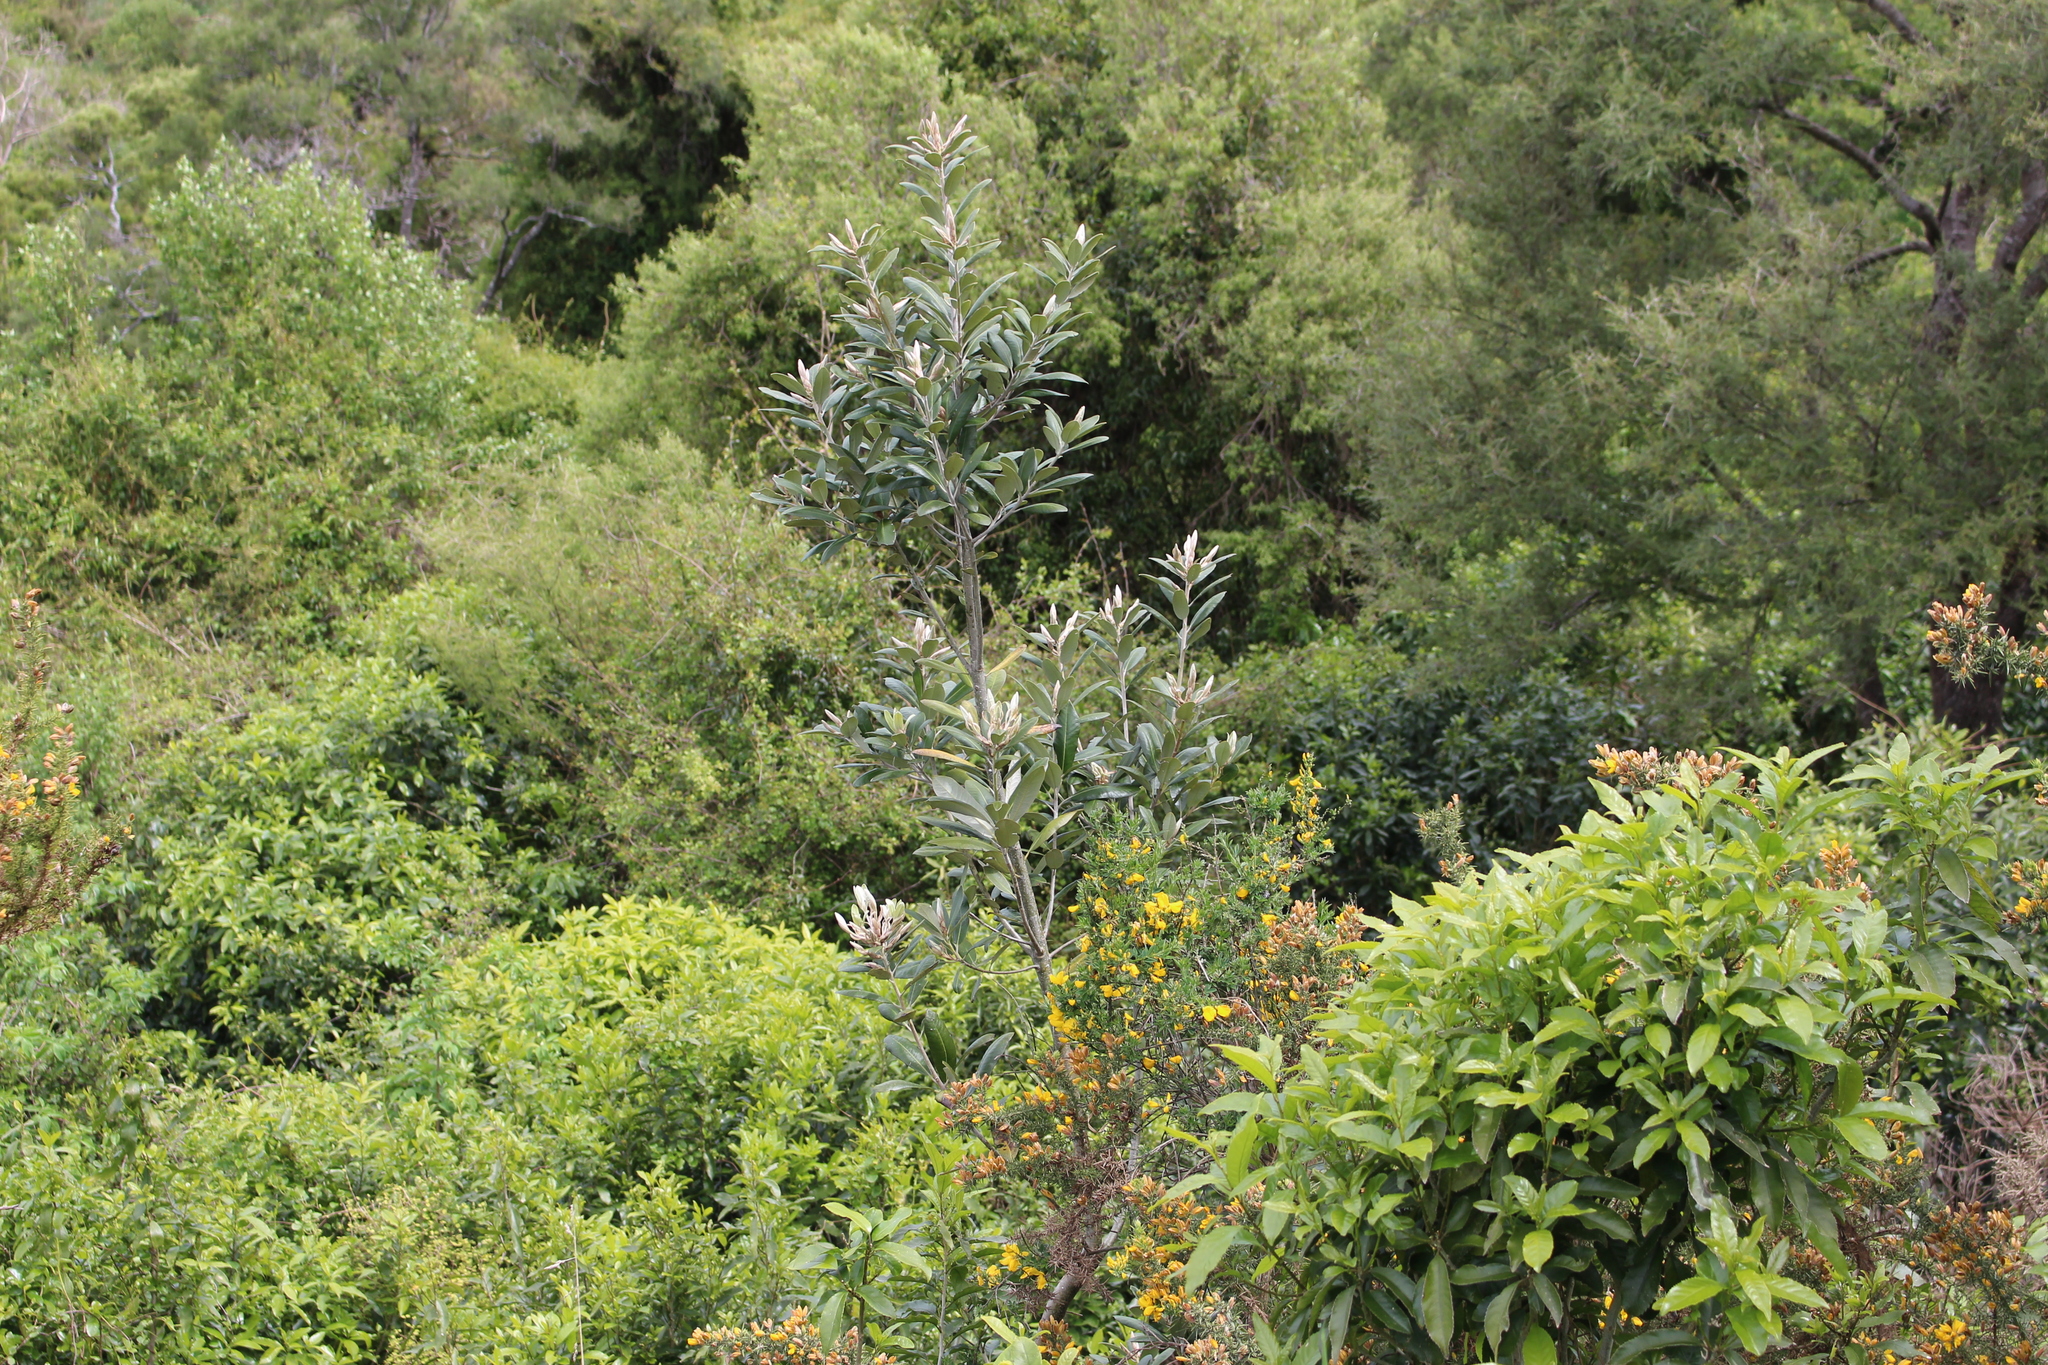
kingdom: Plantae
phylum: Tracheophyta
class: Magnoliopsida
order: Apiales
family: Pittosporaceae
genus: Pittosporum
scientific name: Pittosporum ralphii
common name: Ralph's desertwillow
